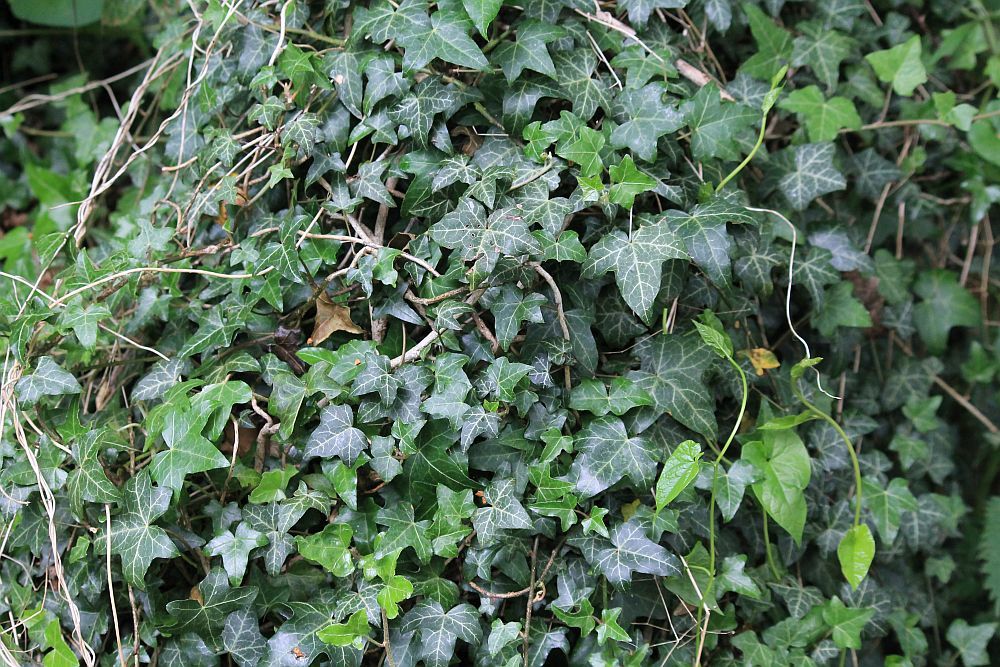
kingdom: Plantae
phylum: Tracheophyta
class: Magnoliopsida
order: Apiales
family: Araliaceae
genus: Hedera
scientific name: Hedera helix
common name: Ivy
